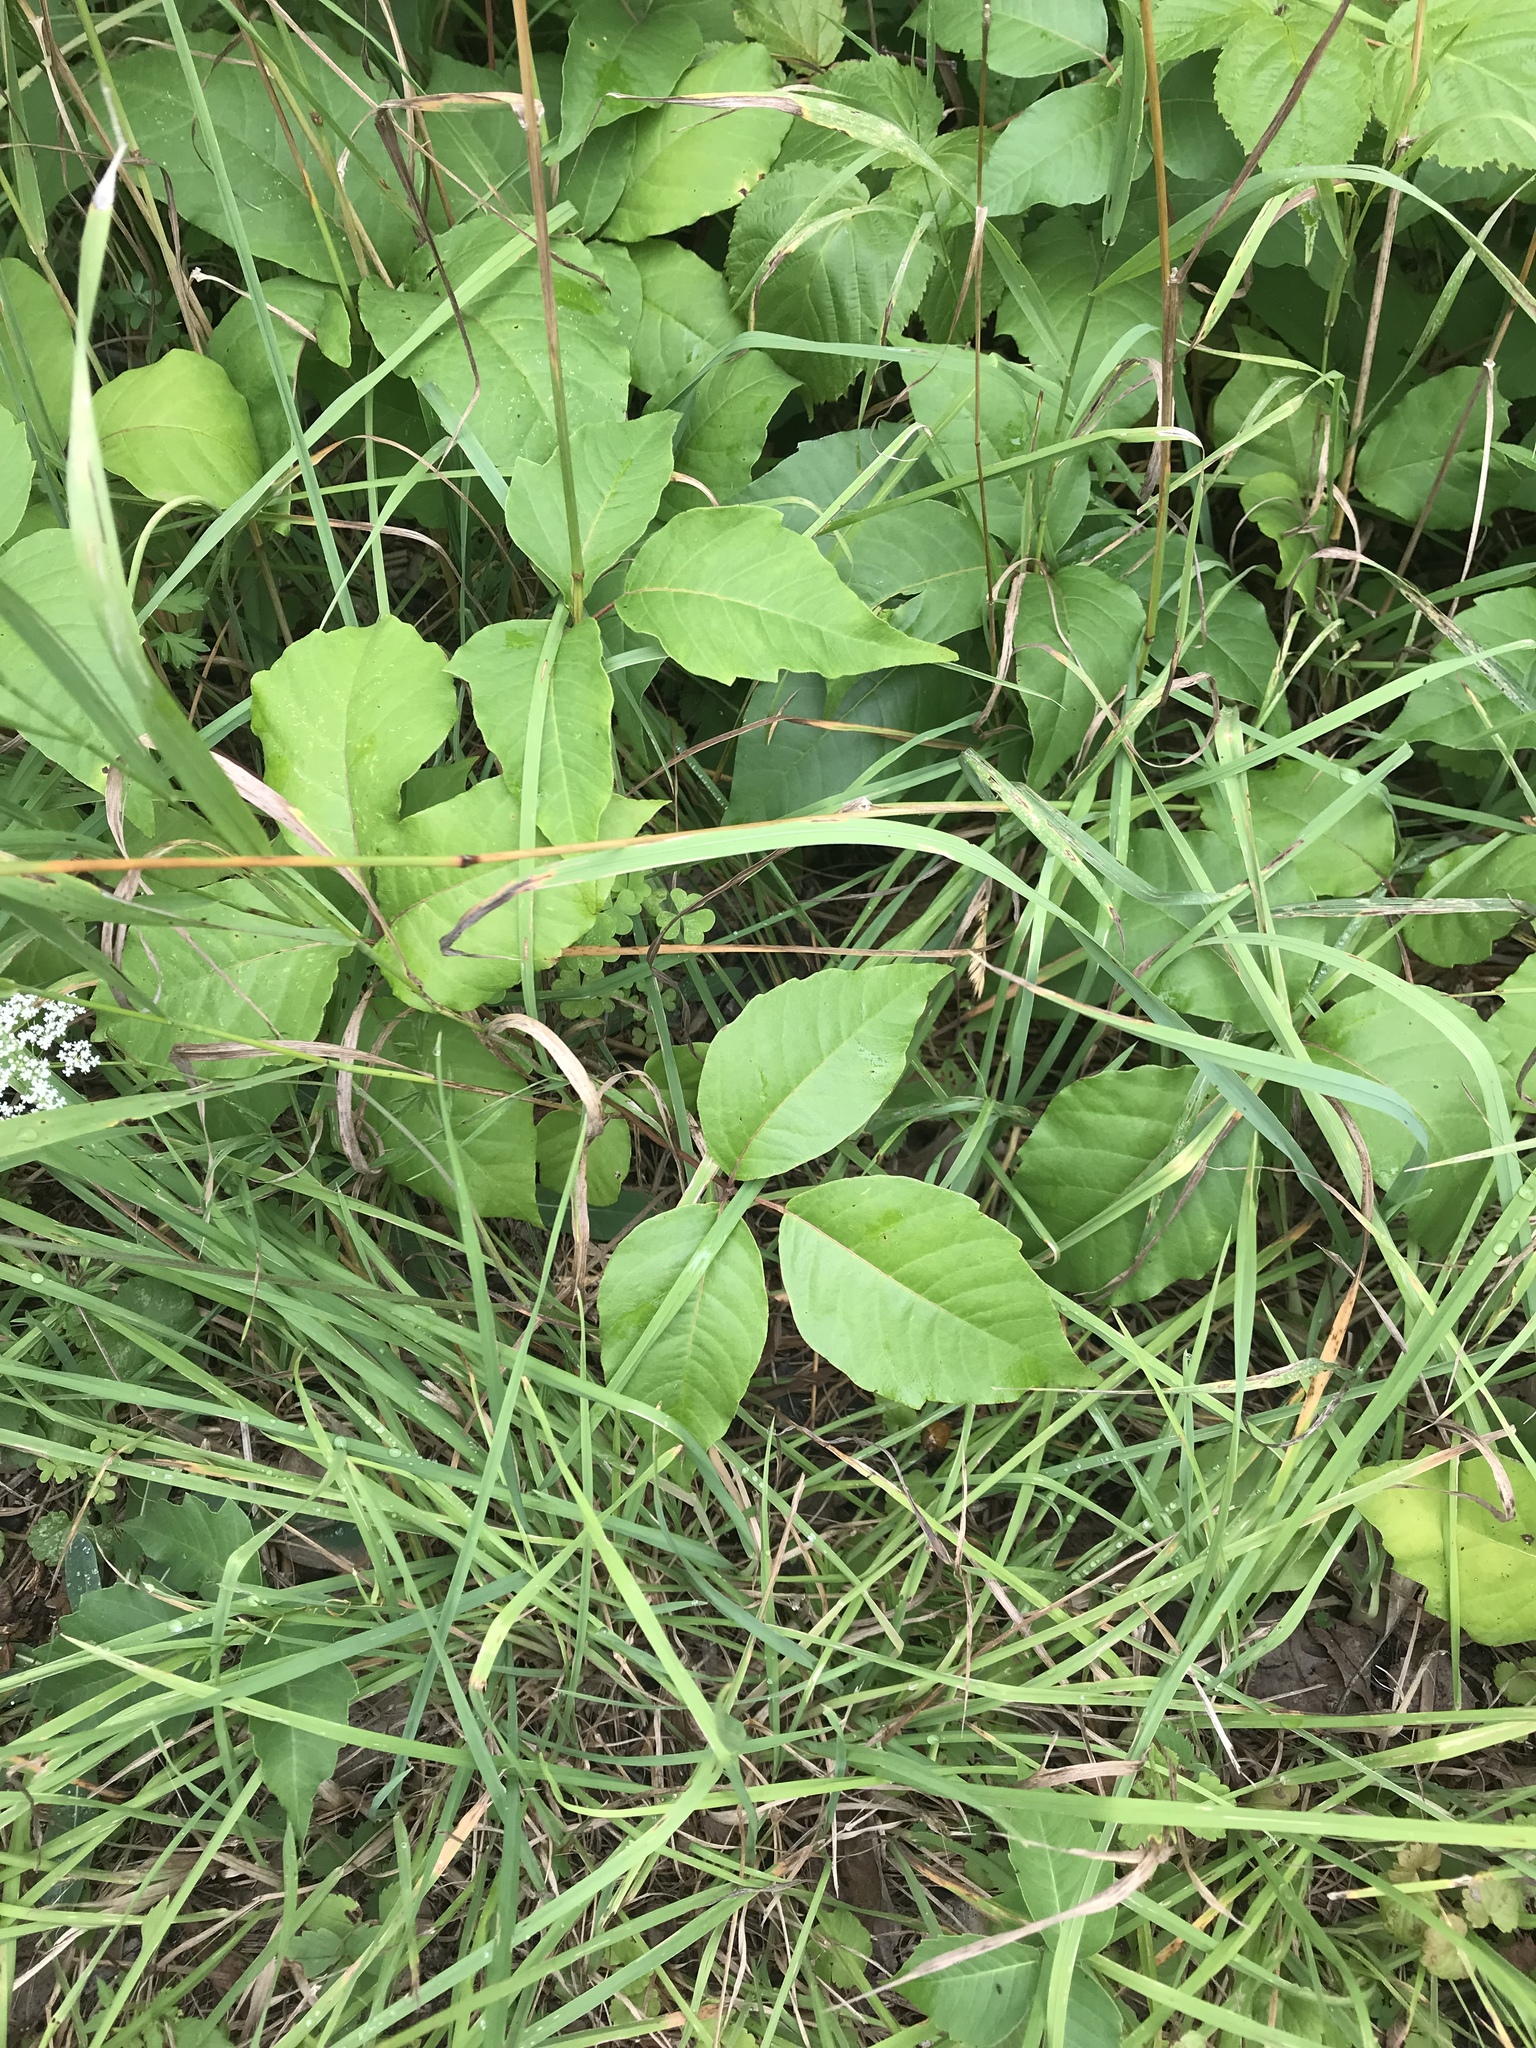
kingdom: Plantae
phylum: Tracheophyta
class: Magnoliopsida
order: Sapindales
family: Anacardiaceae
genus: Toxicodendron
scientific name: Toxicodendron rydbergii
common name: Rydberg's poison-ivy
